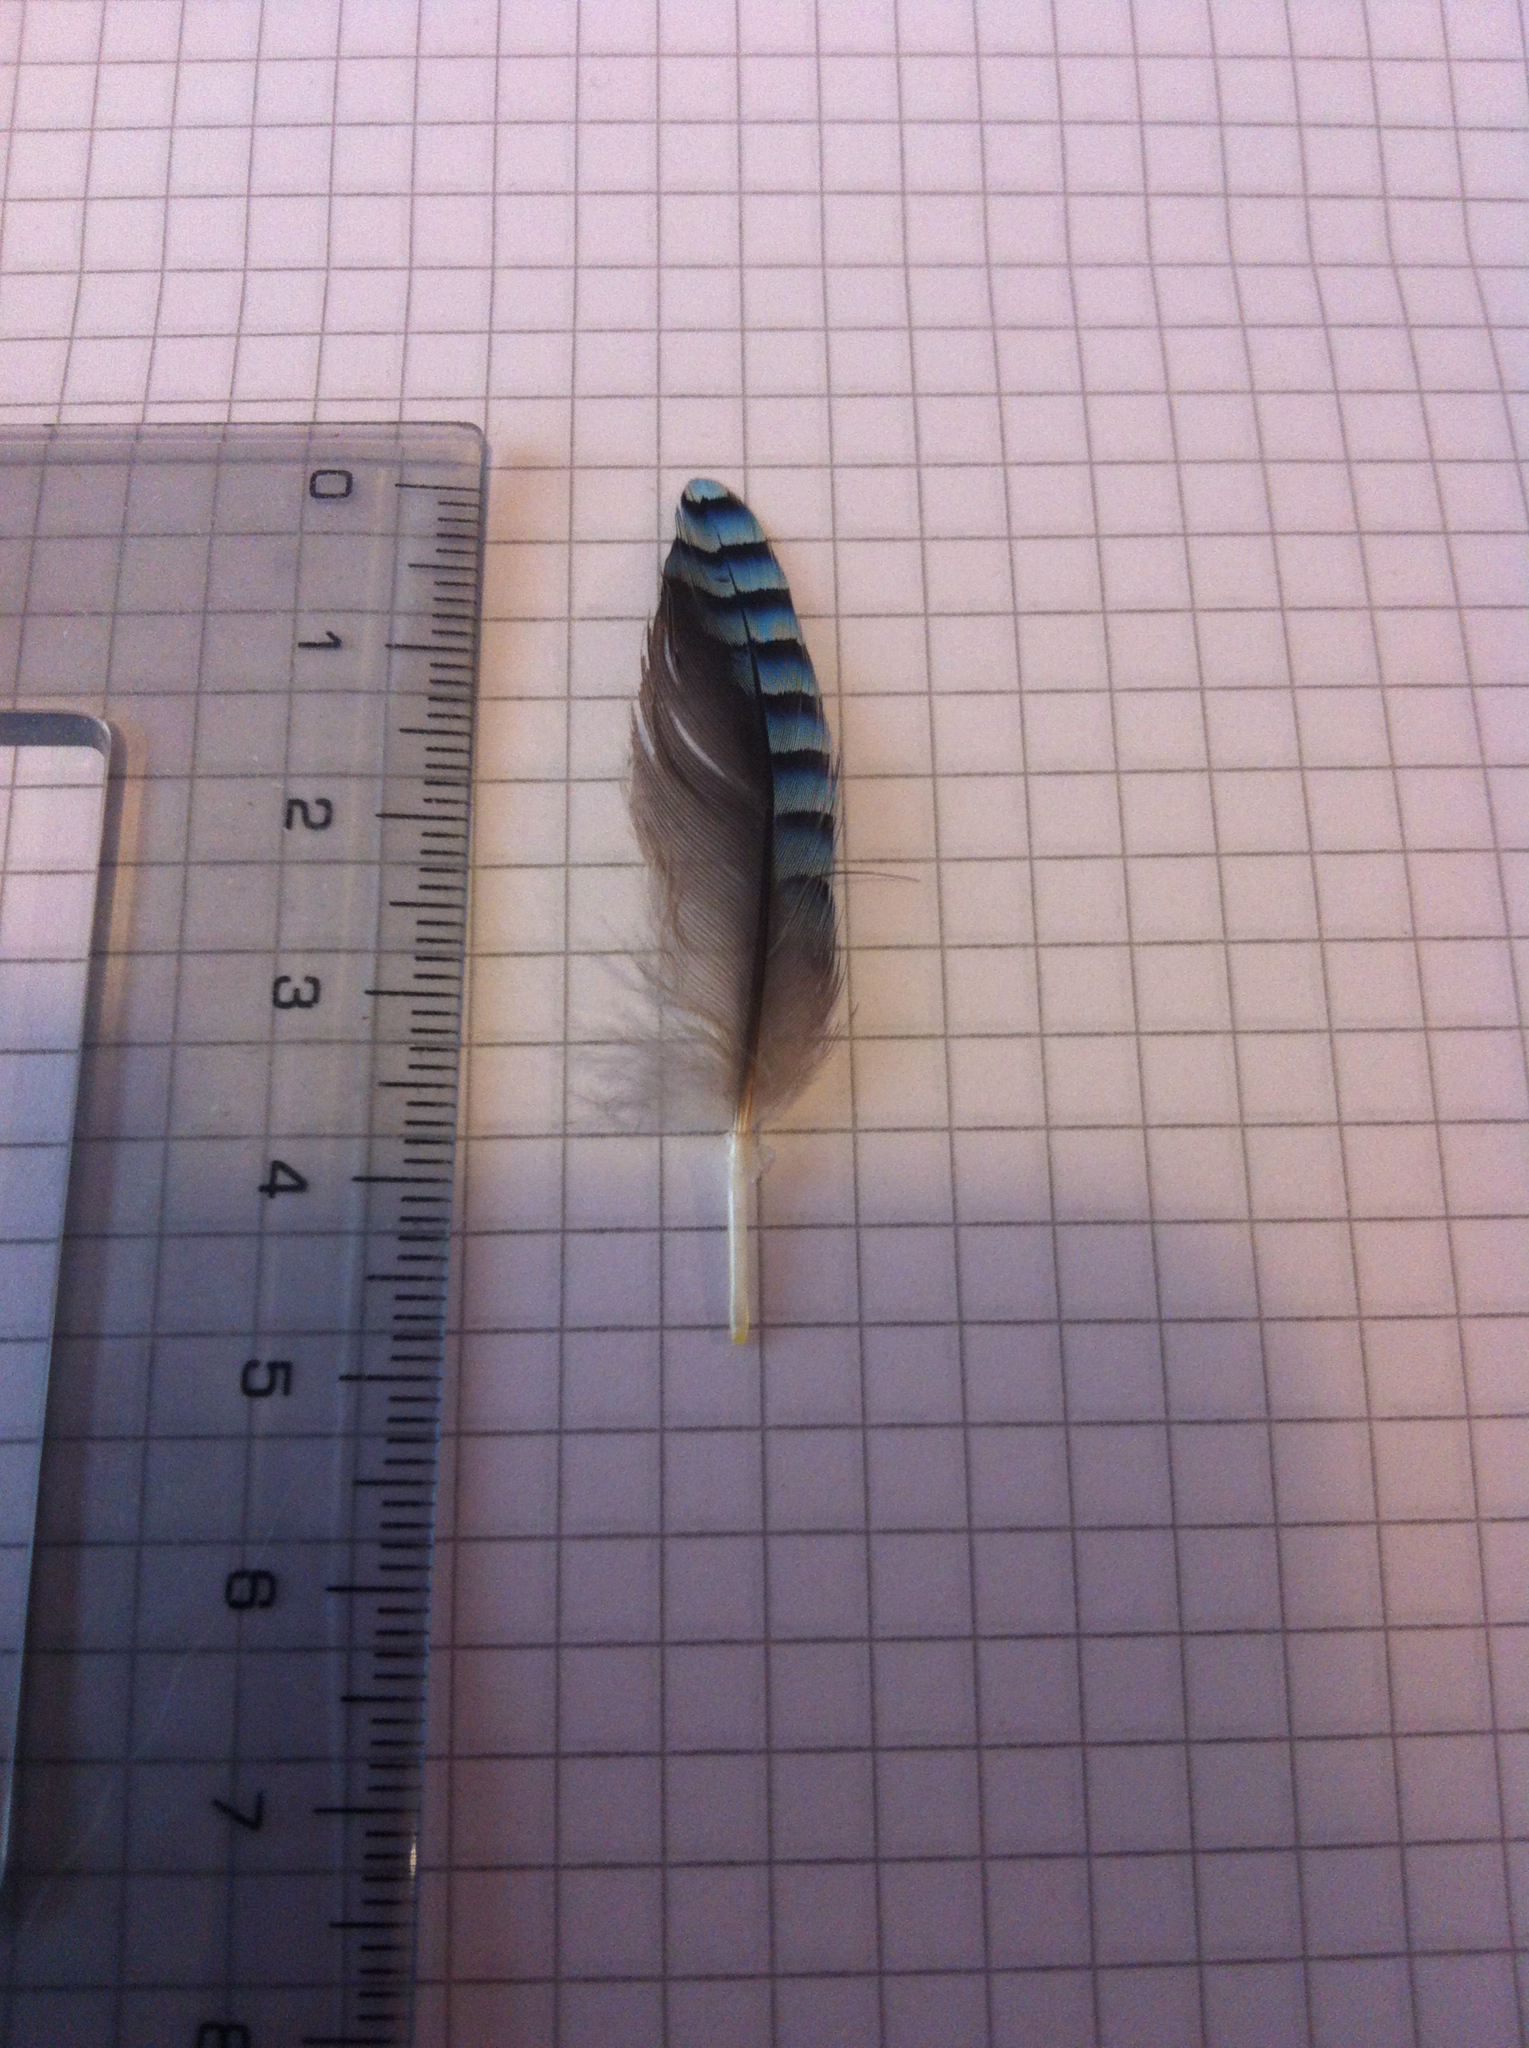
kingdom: Animalia
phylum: Chordata
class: Aves
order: Passeriformes
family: Corvidae
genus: Garrulus
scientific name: Garrulus glandarius
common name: Eurasian jay
